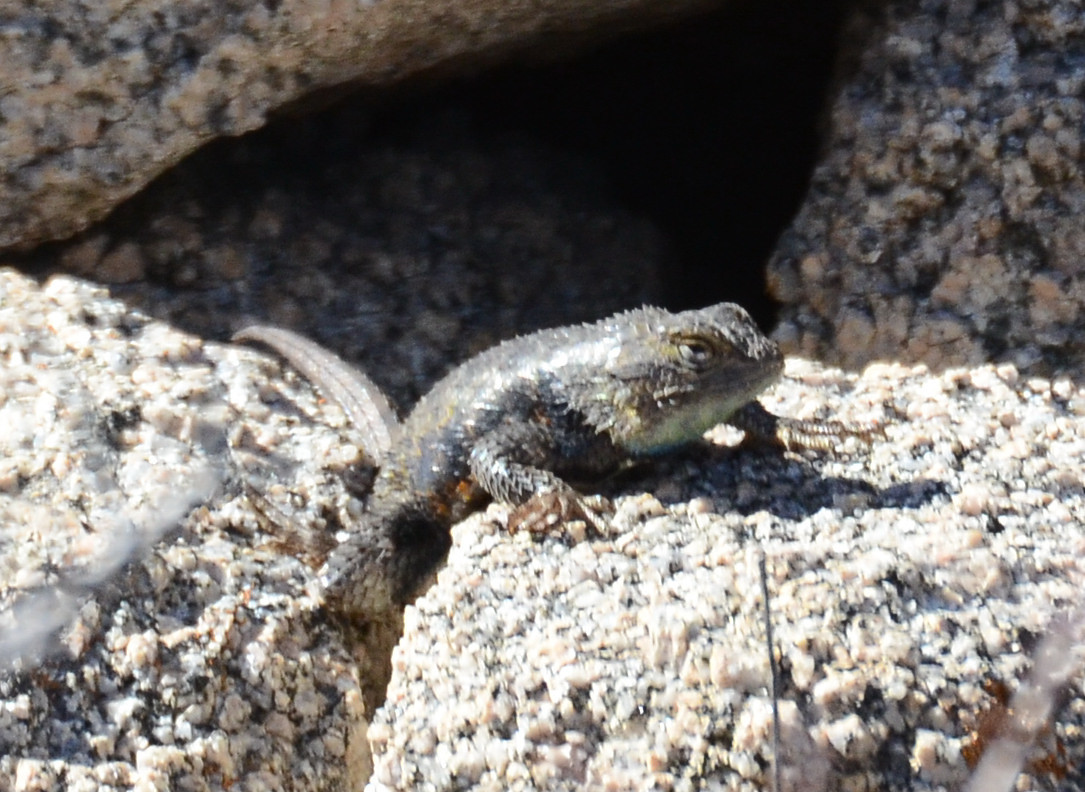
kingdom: Animalia
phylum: Chordata
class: Squamata
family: Phrynosomatidae
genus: Sceloporus
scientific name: Sceloporus magister
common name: Desert spiny lizard
